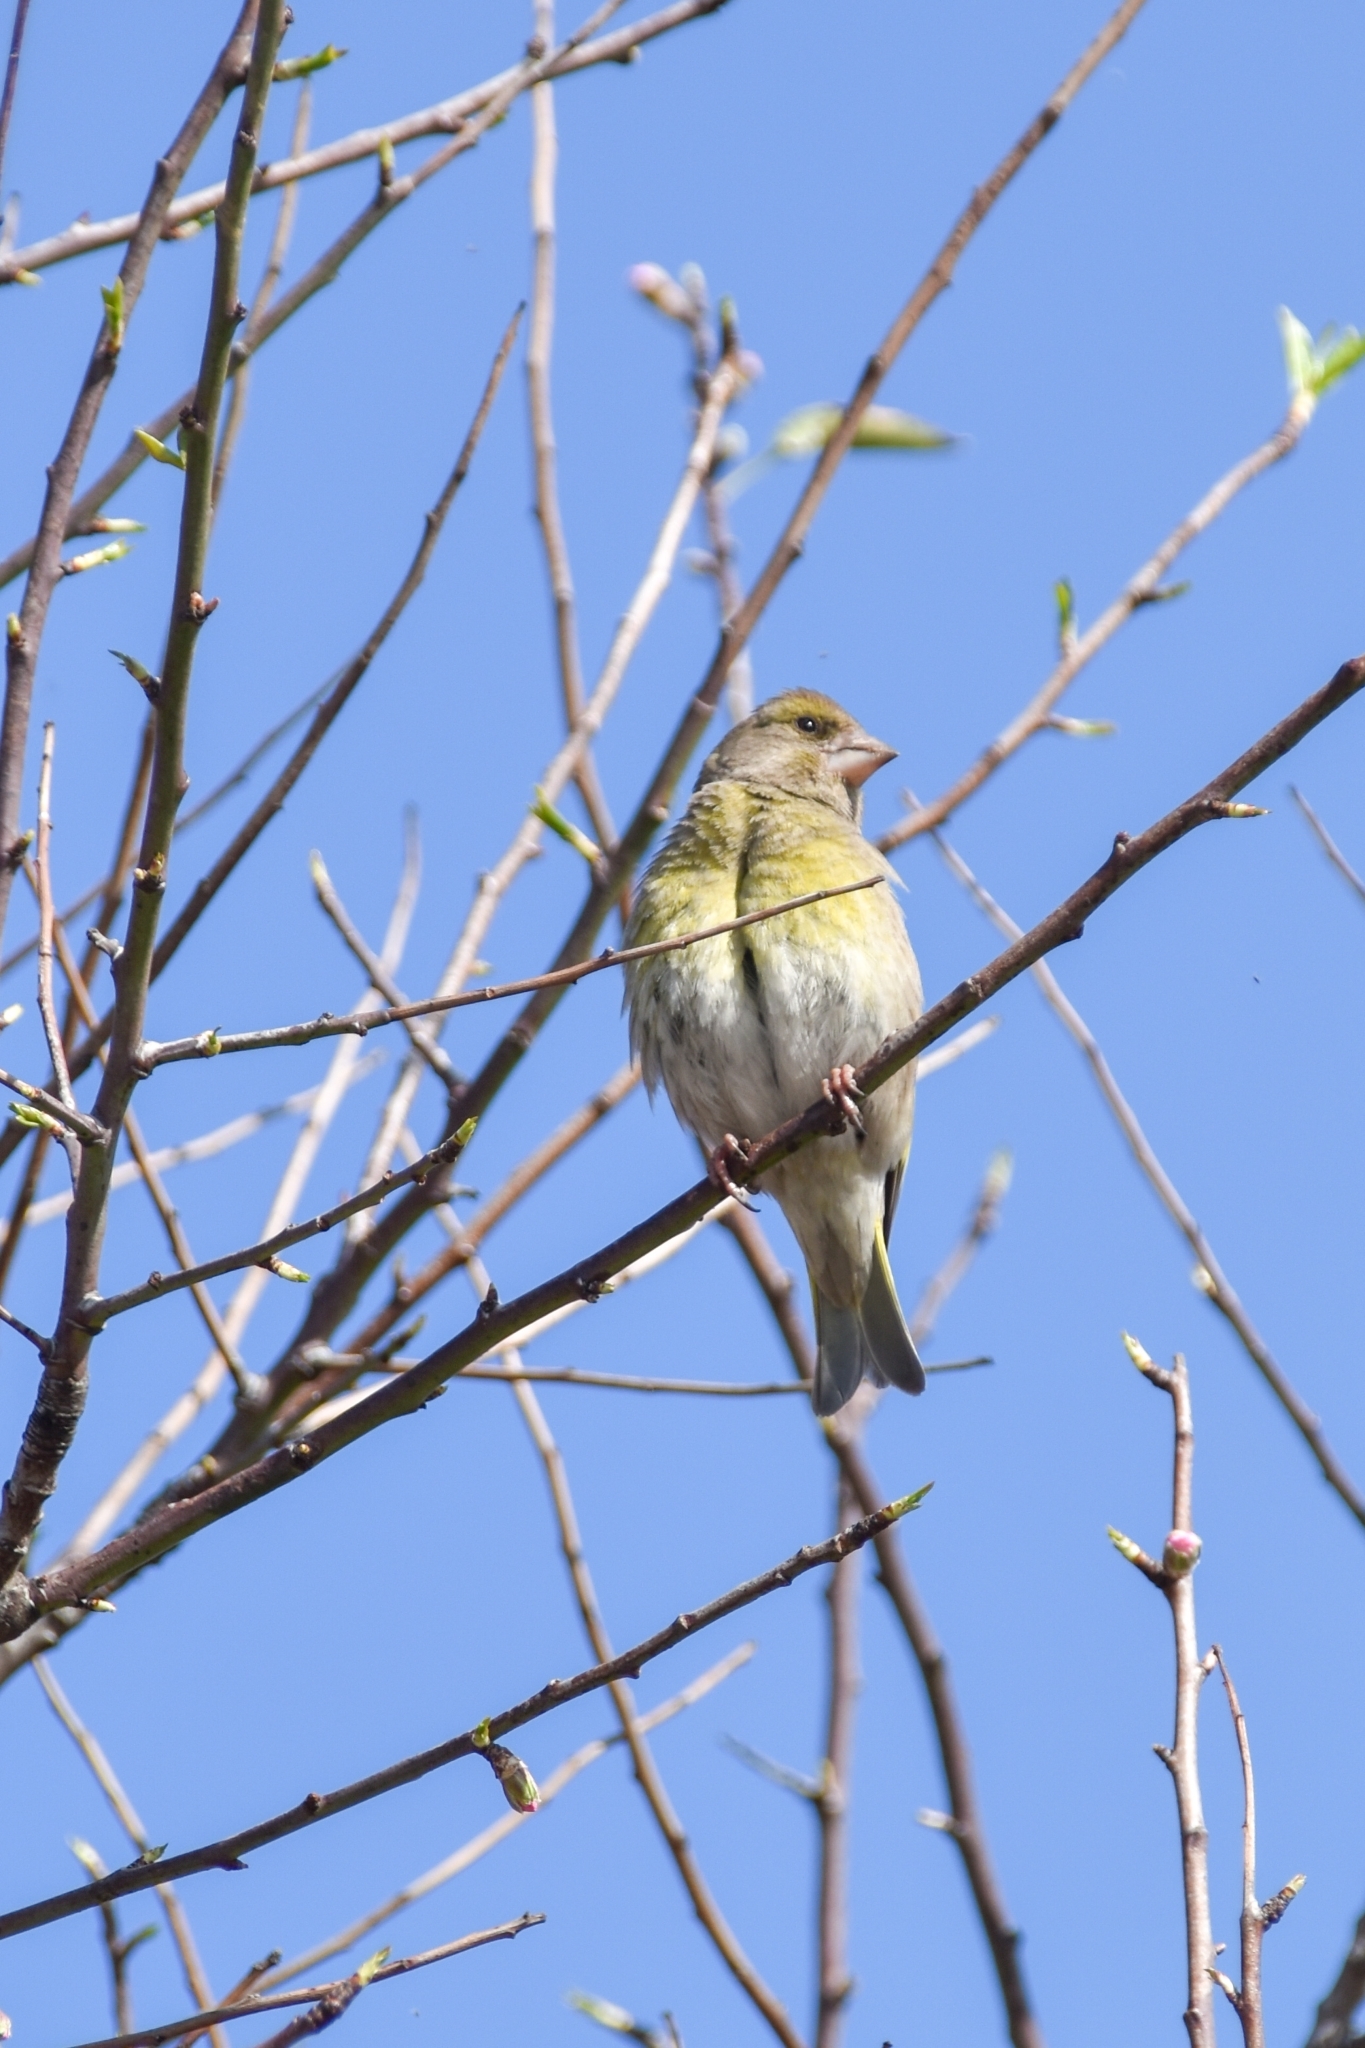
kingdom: Plantae
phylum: Tracheophyta
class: Liliopsida
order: Poales
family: Poaceae
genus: Chloris
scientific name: Chloris chloris
